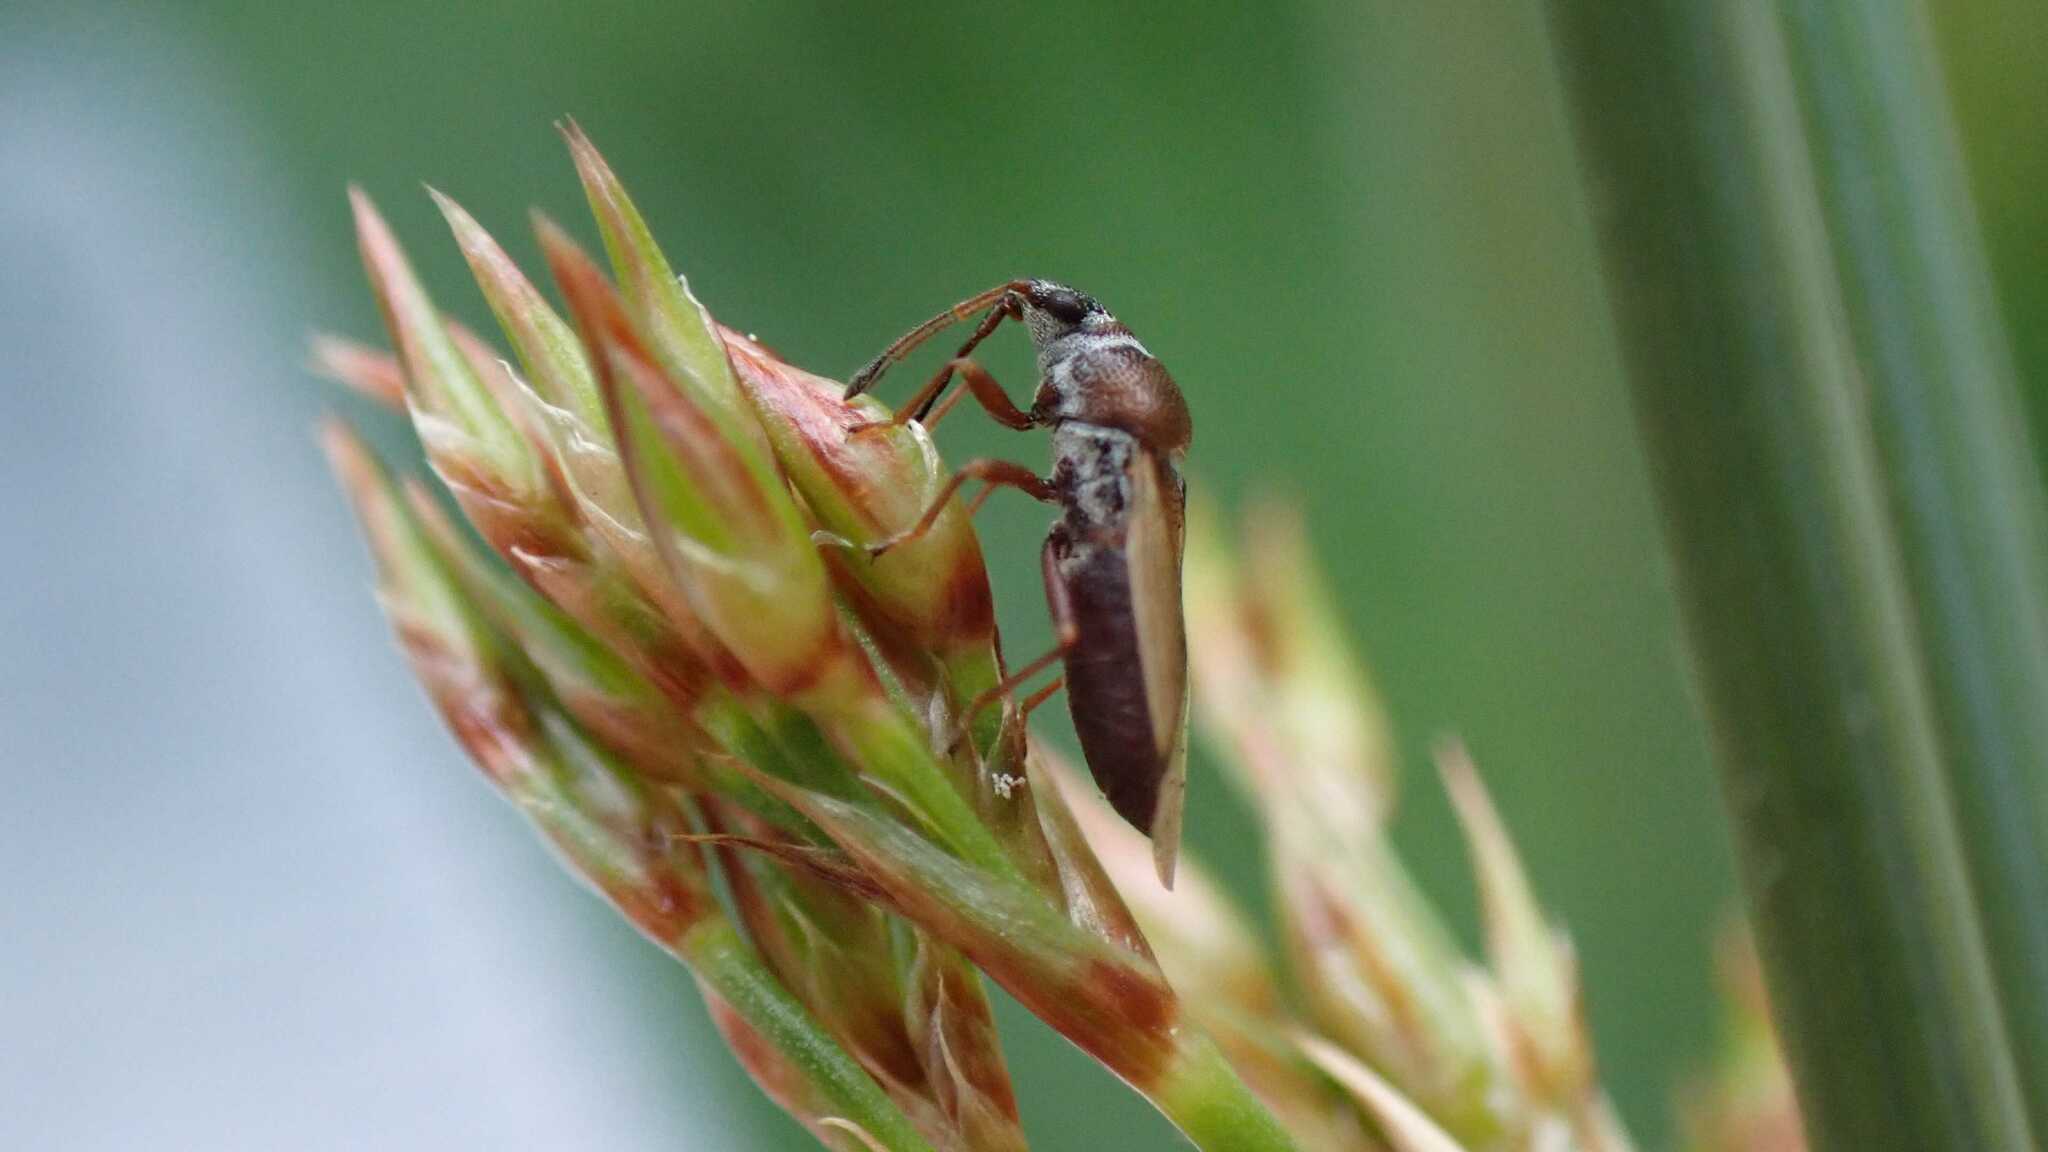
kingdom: Animalia
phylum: Arthropoda
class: Insecta
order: Hemiptera
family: Cymidae
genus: Cymus
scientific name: Cymus melanocephalus
